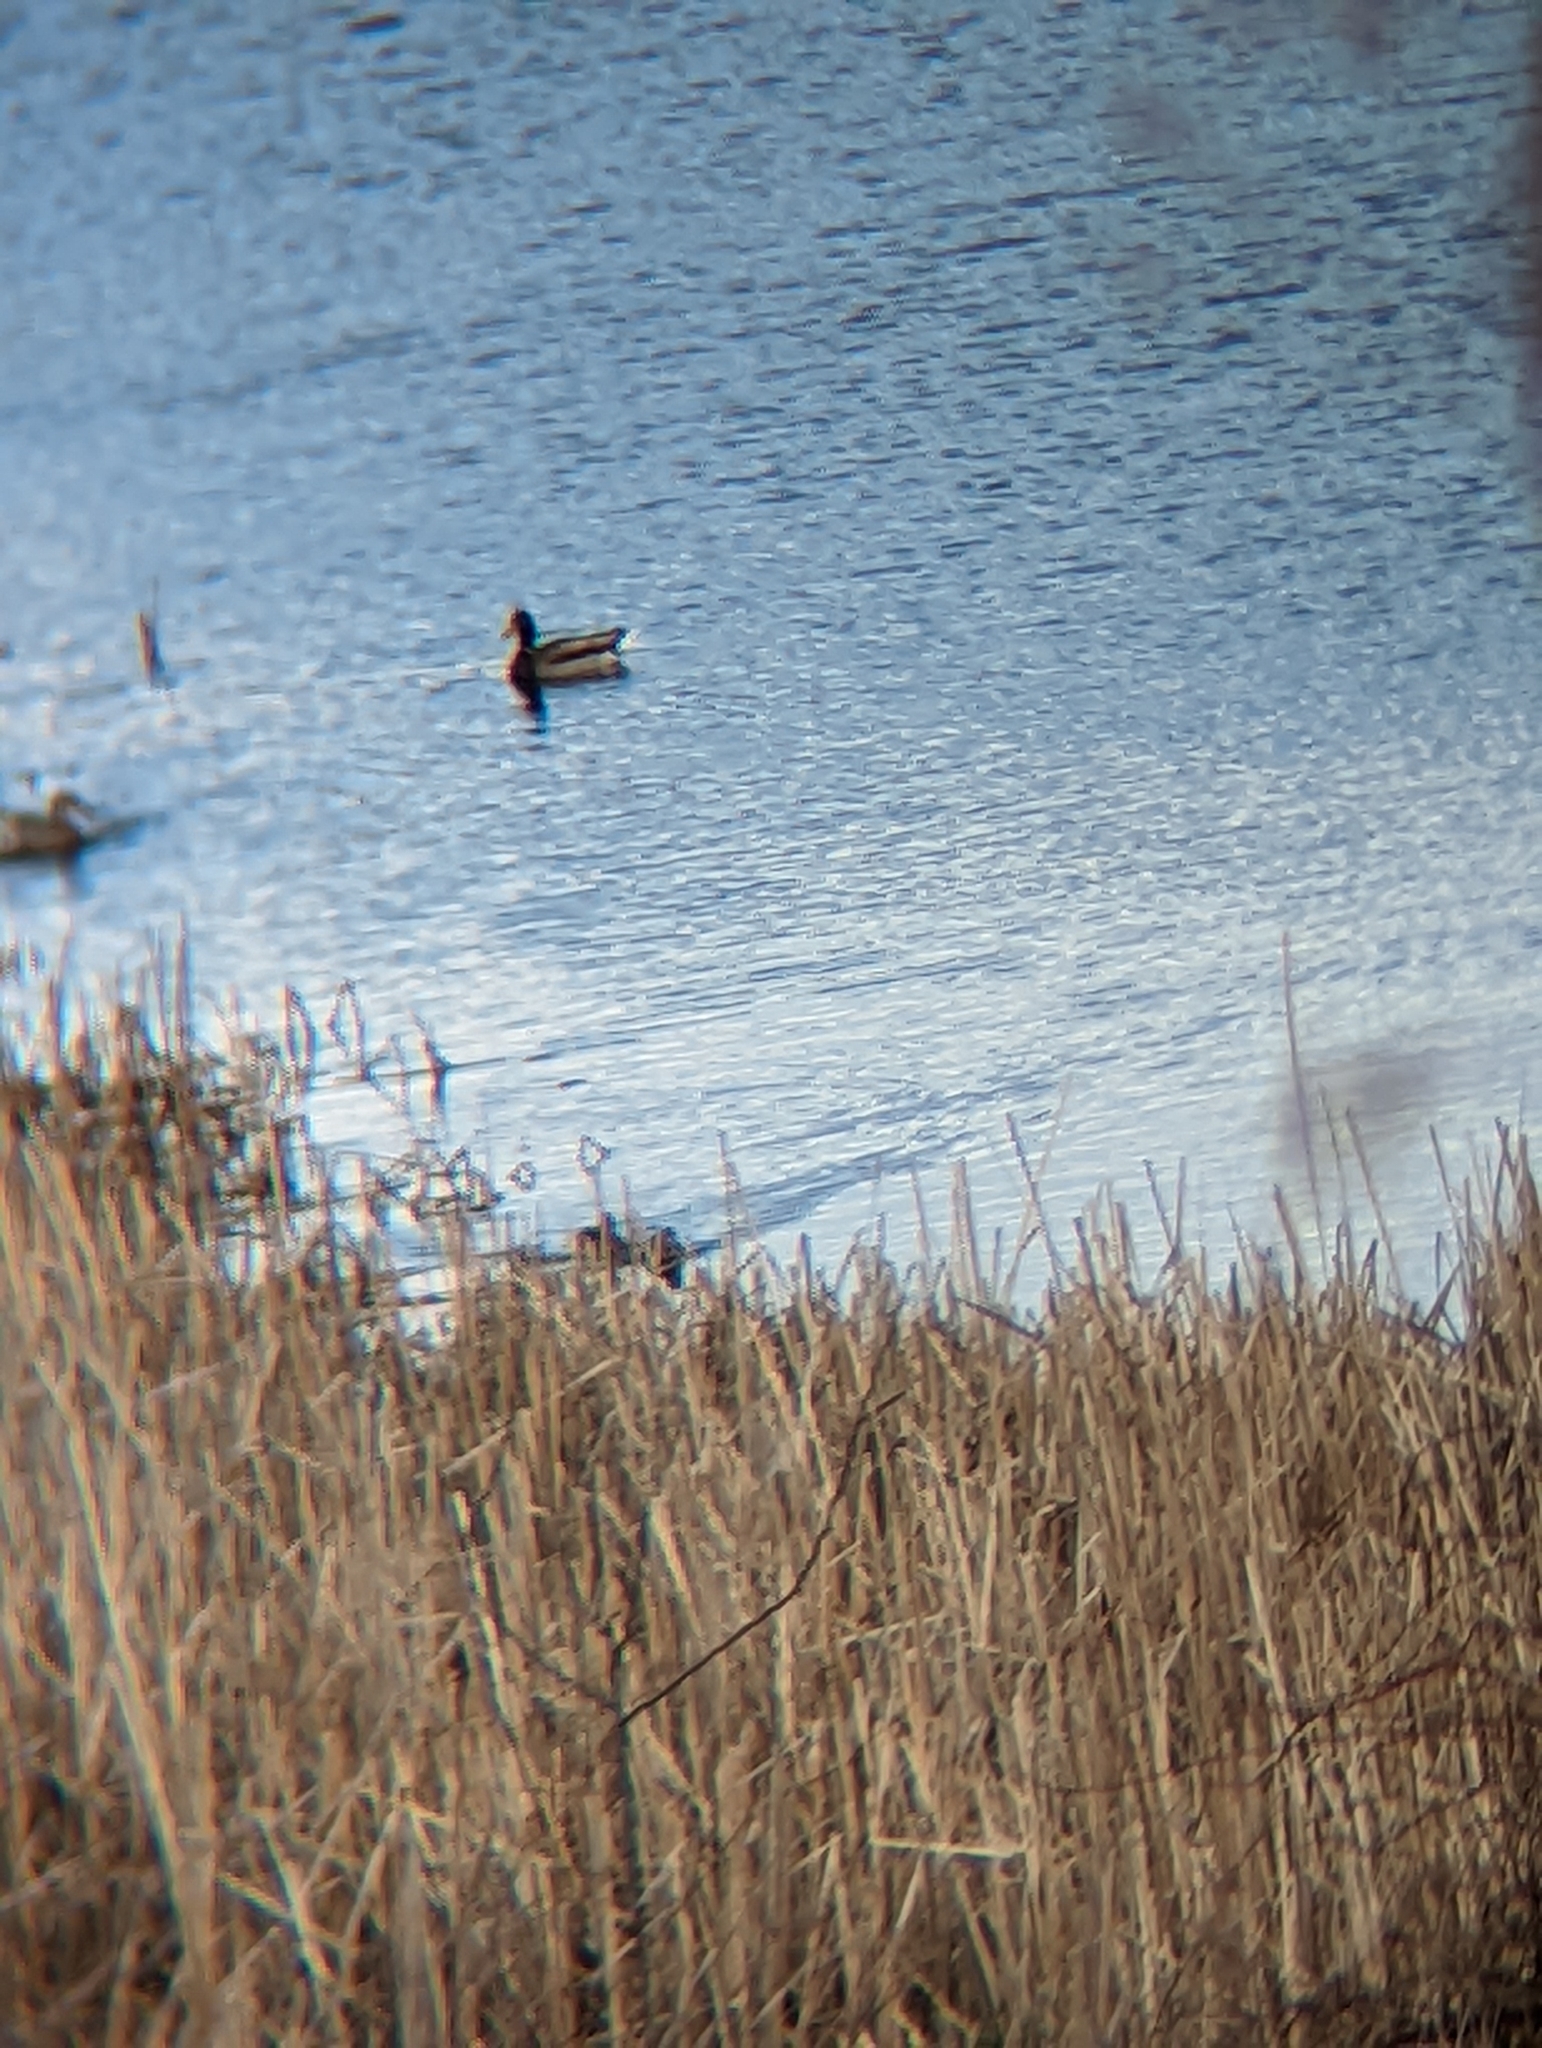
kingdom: Animalia
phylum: Chordata
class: Aves
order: Anseriformes
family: Anatidae
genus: Anas
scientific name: Anas platyrhynchos
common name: Mallard
